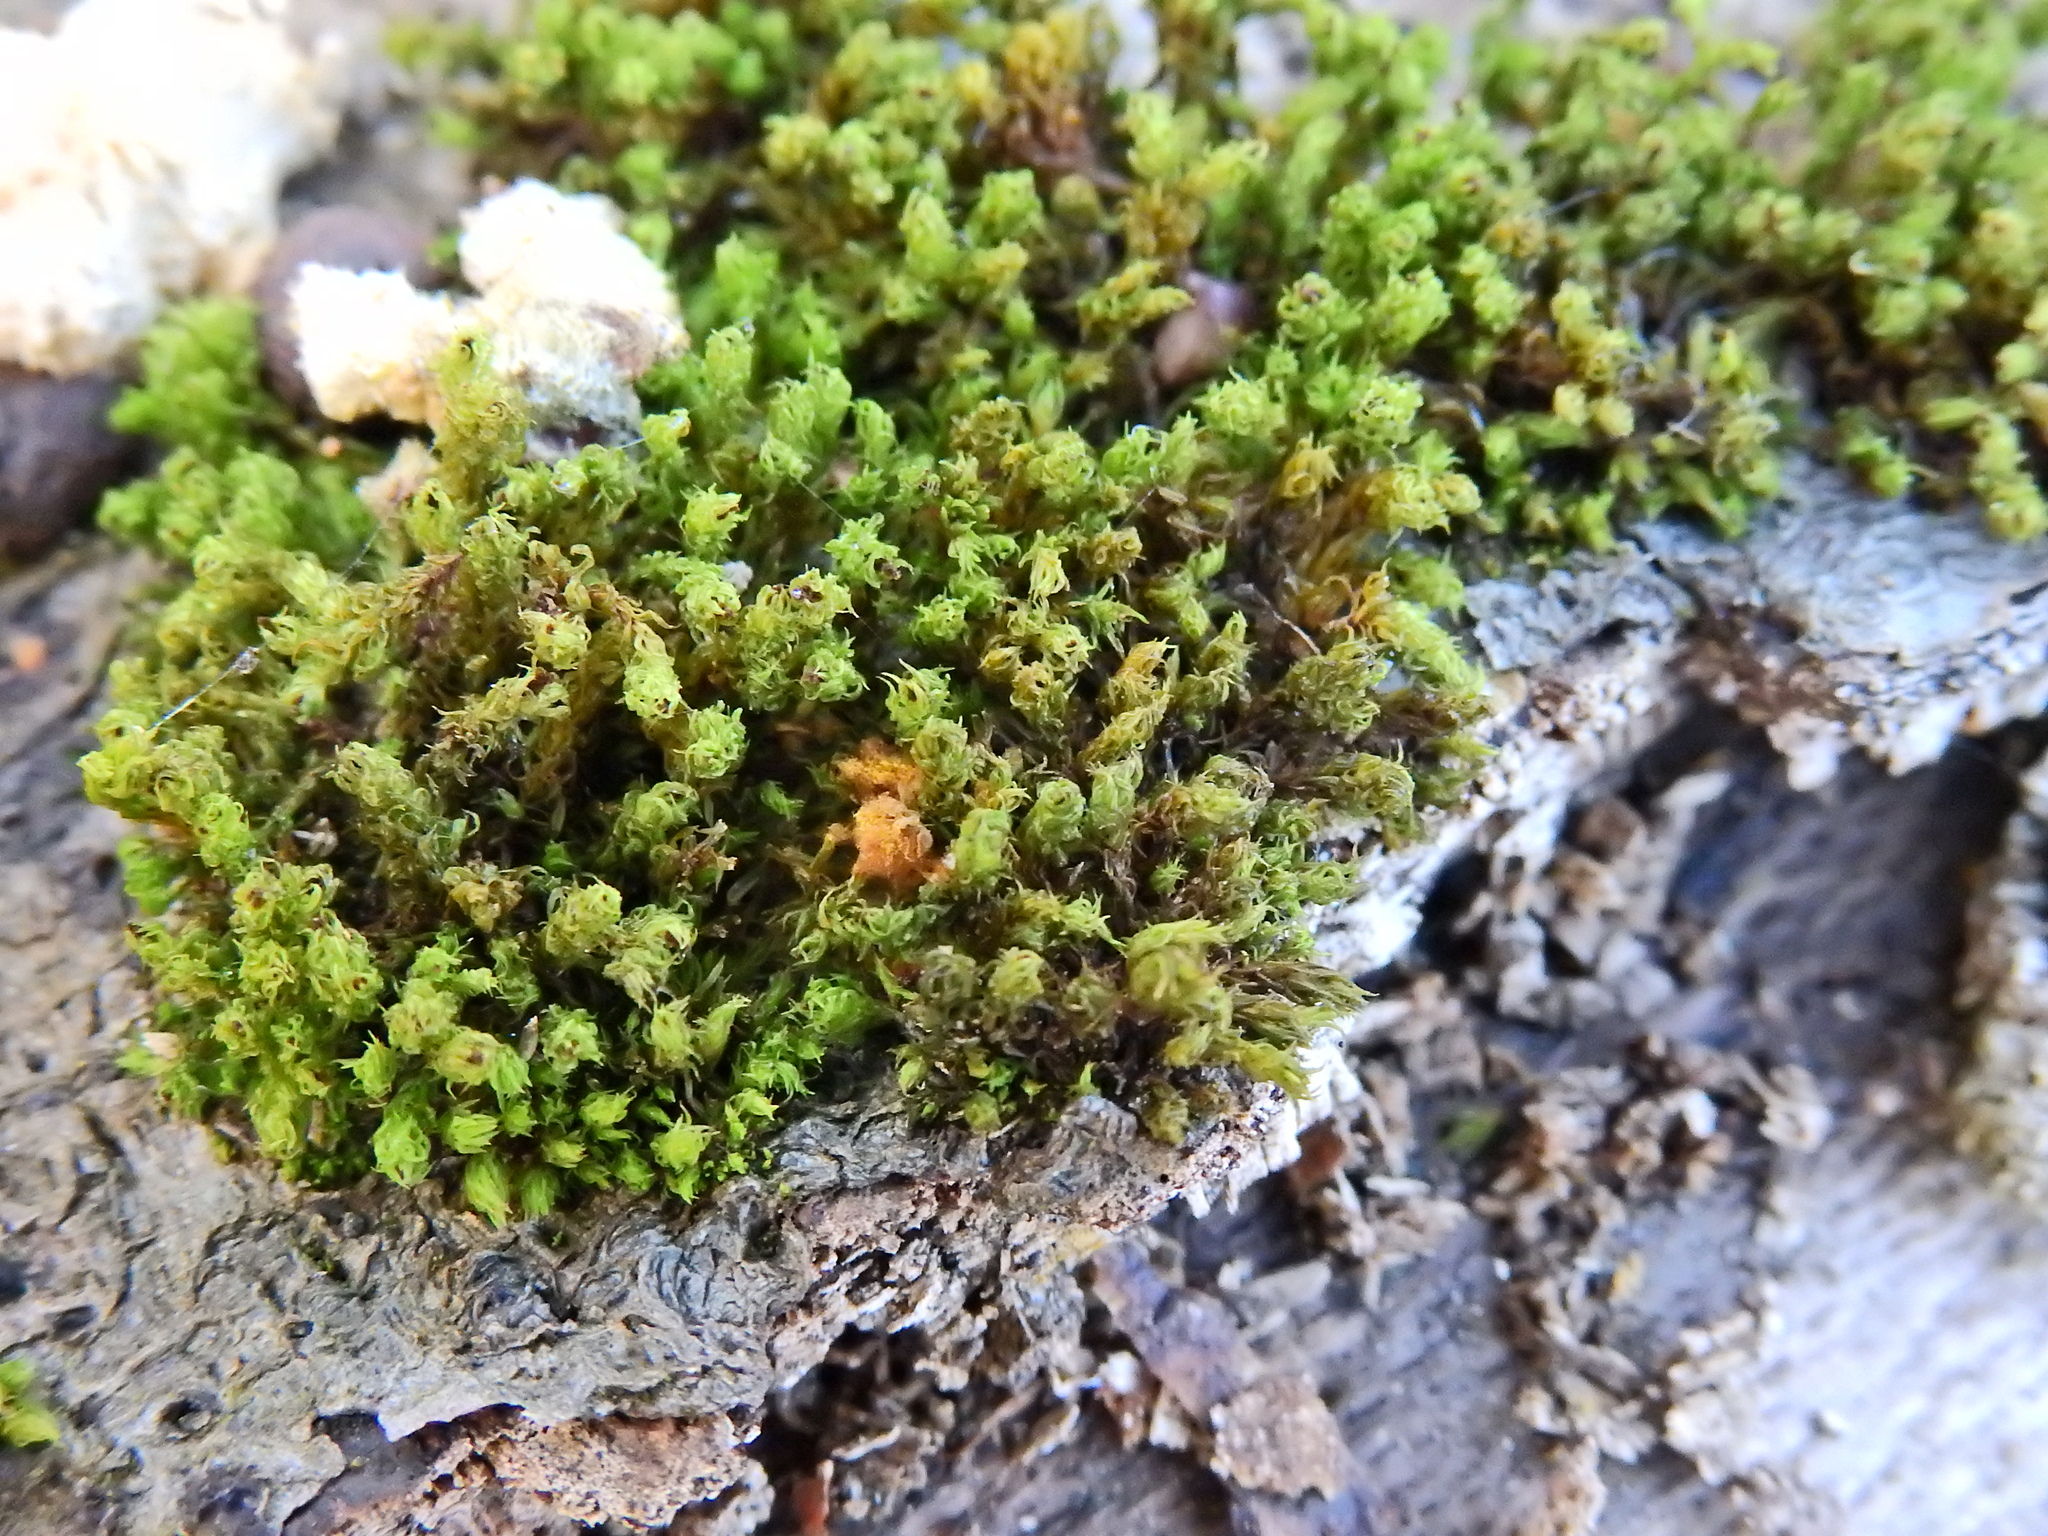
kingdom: Plantae
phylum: Bryophyta
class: Bryopsida
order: Orthotrichales
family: Orthotrichaceae
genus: Plenogemma
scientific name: Plenogemma phyllantha
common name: Frizzled pincushion
